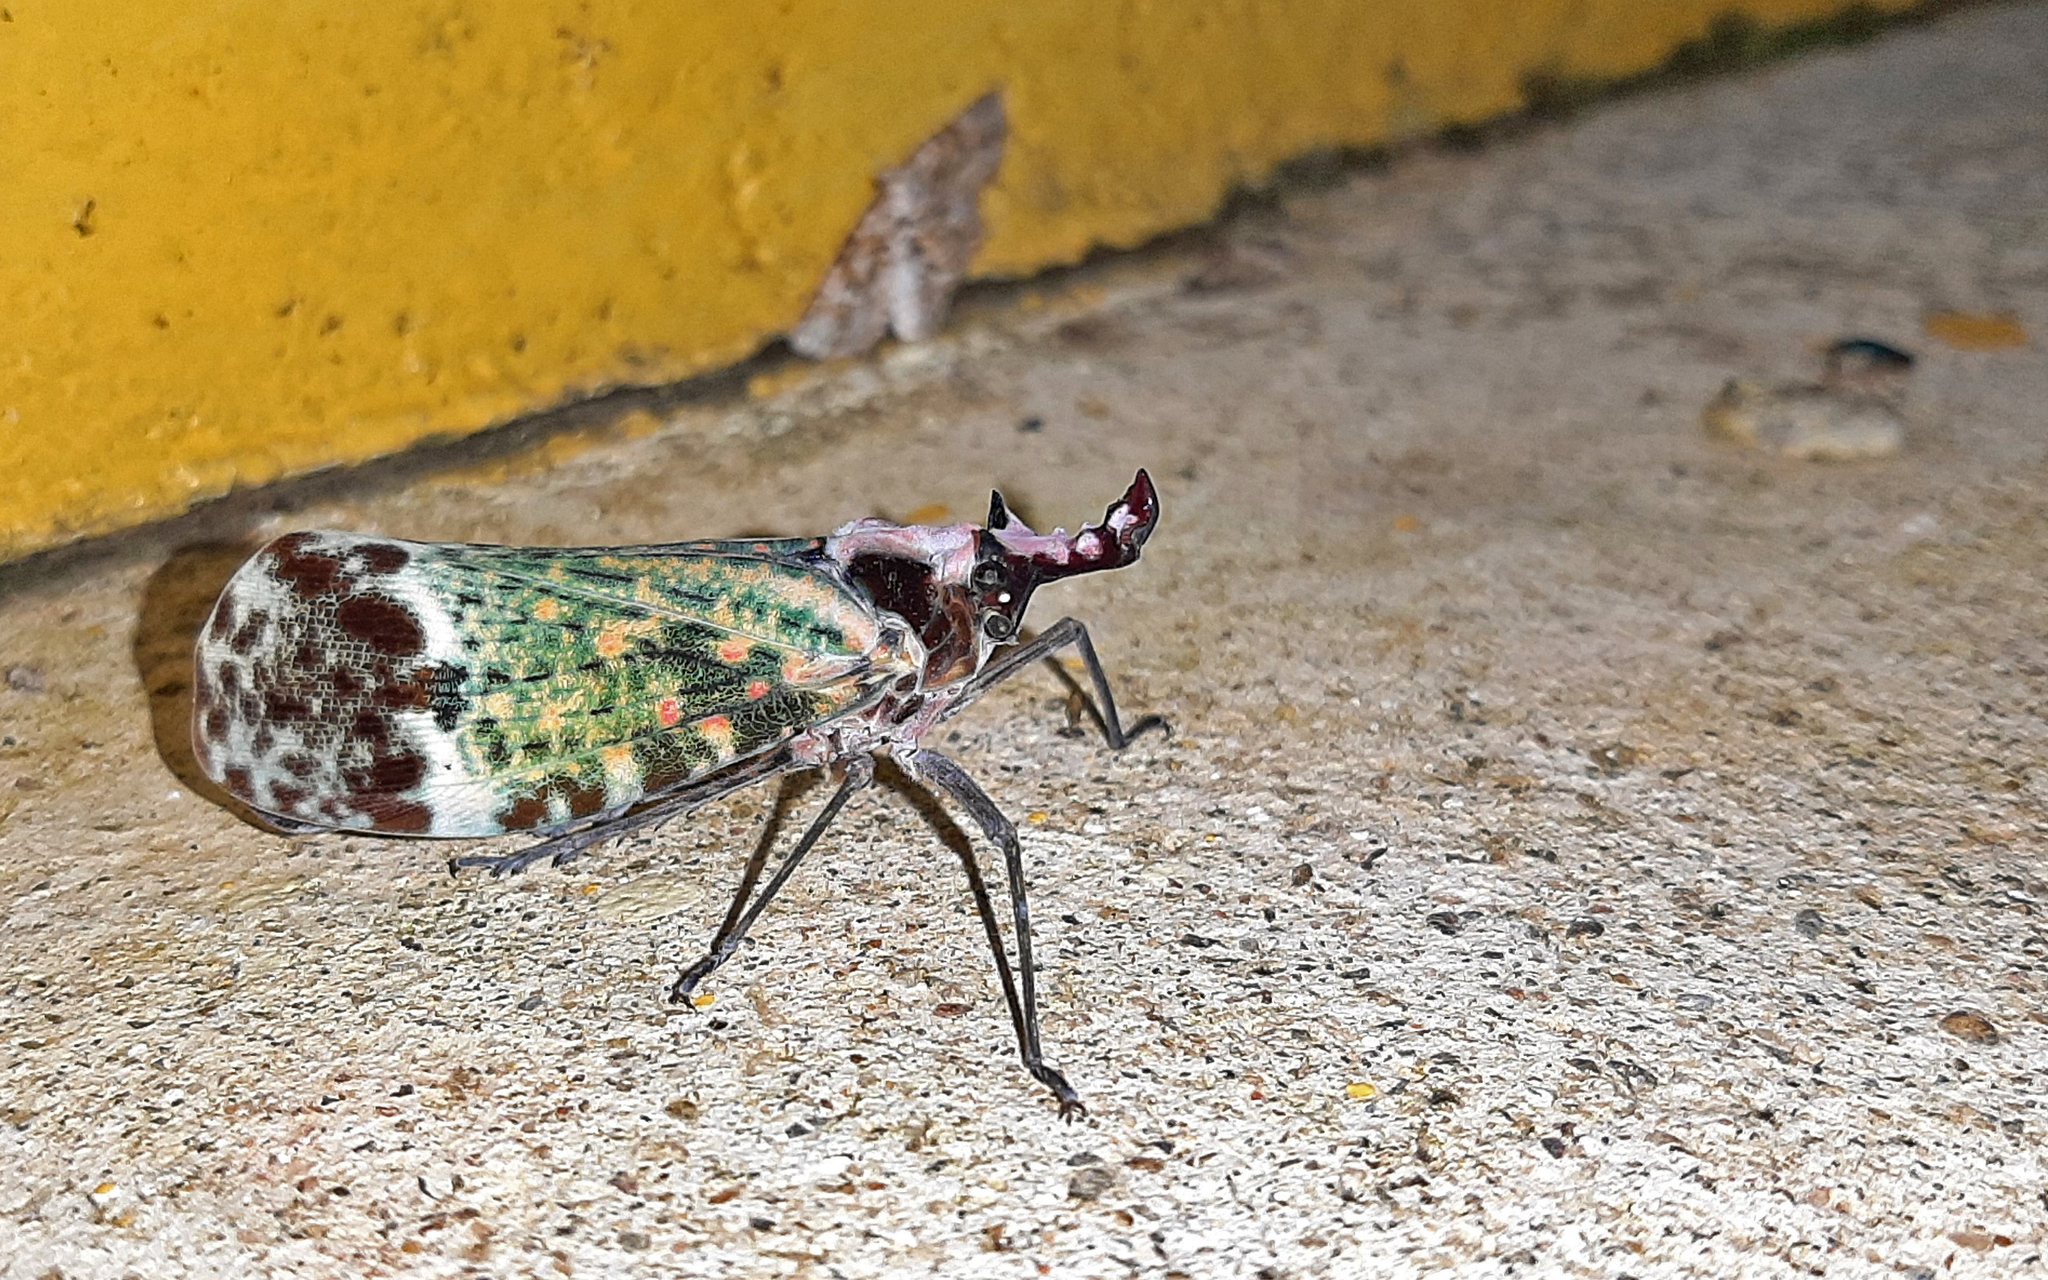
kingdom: Animalia
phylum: Arthropoda
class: Insecta
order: Hemiptera
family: Fulgoridae
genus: Phrictus
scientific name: Phrictus hoffmannsi
